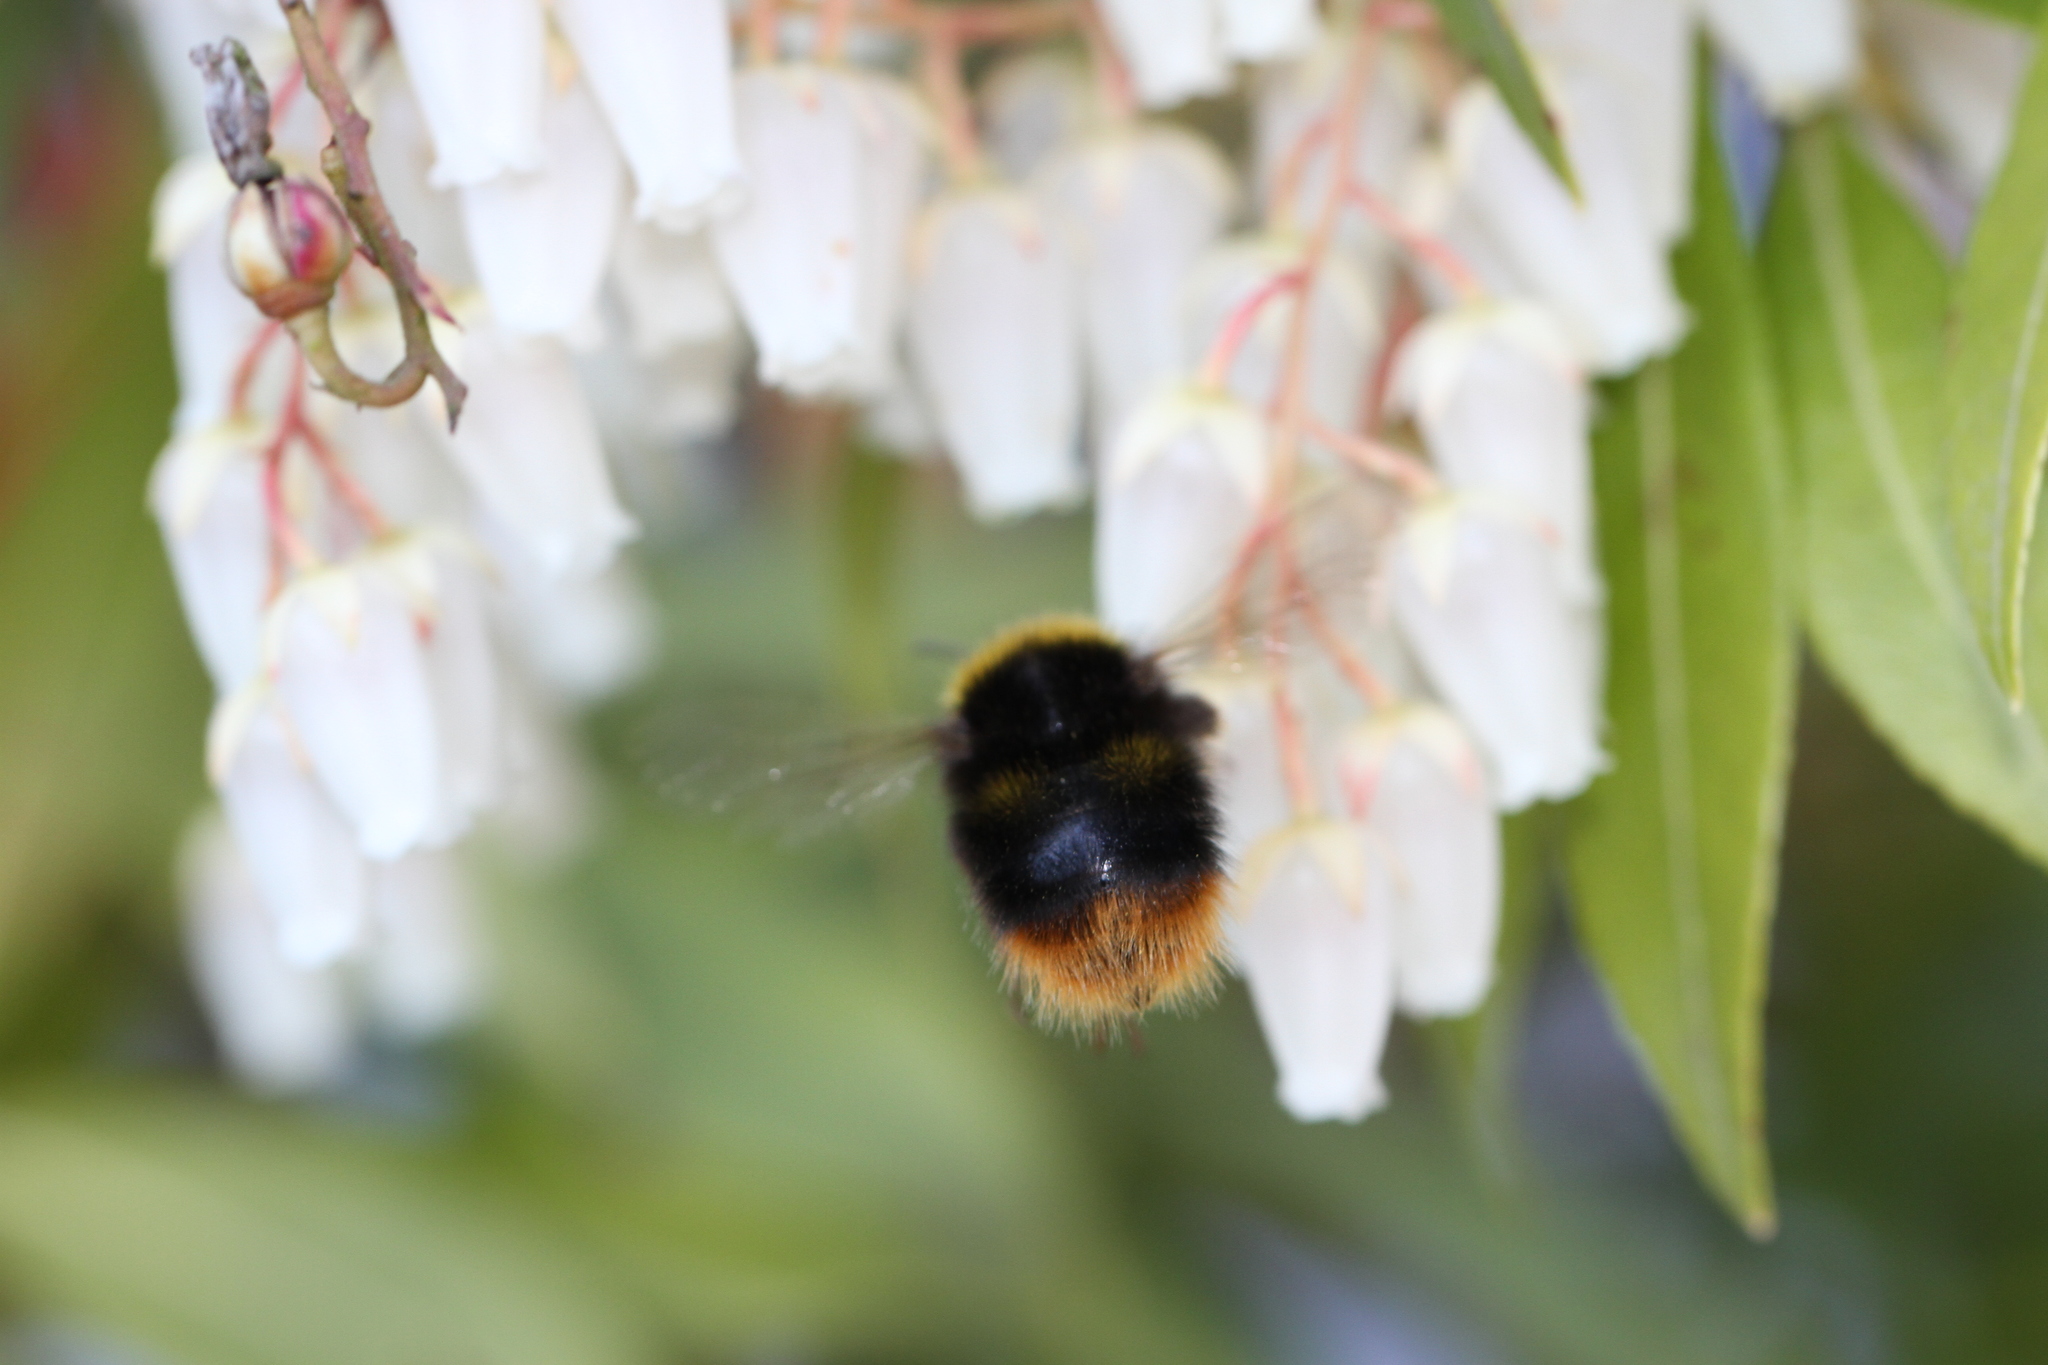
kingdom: Animalia
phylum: Arthropoda
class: Insecta
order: Hymenoptera
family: Apidae
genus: Bombus
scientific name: Bombus pratorum
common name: Early humble-bee
